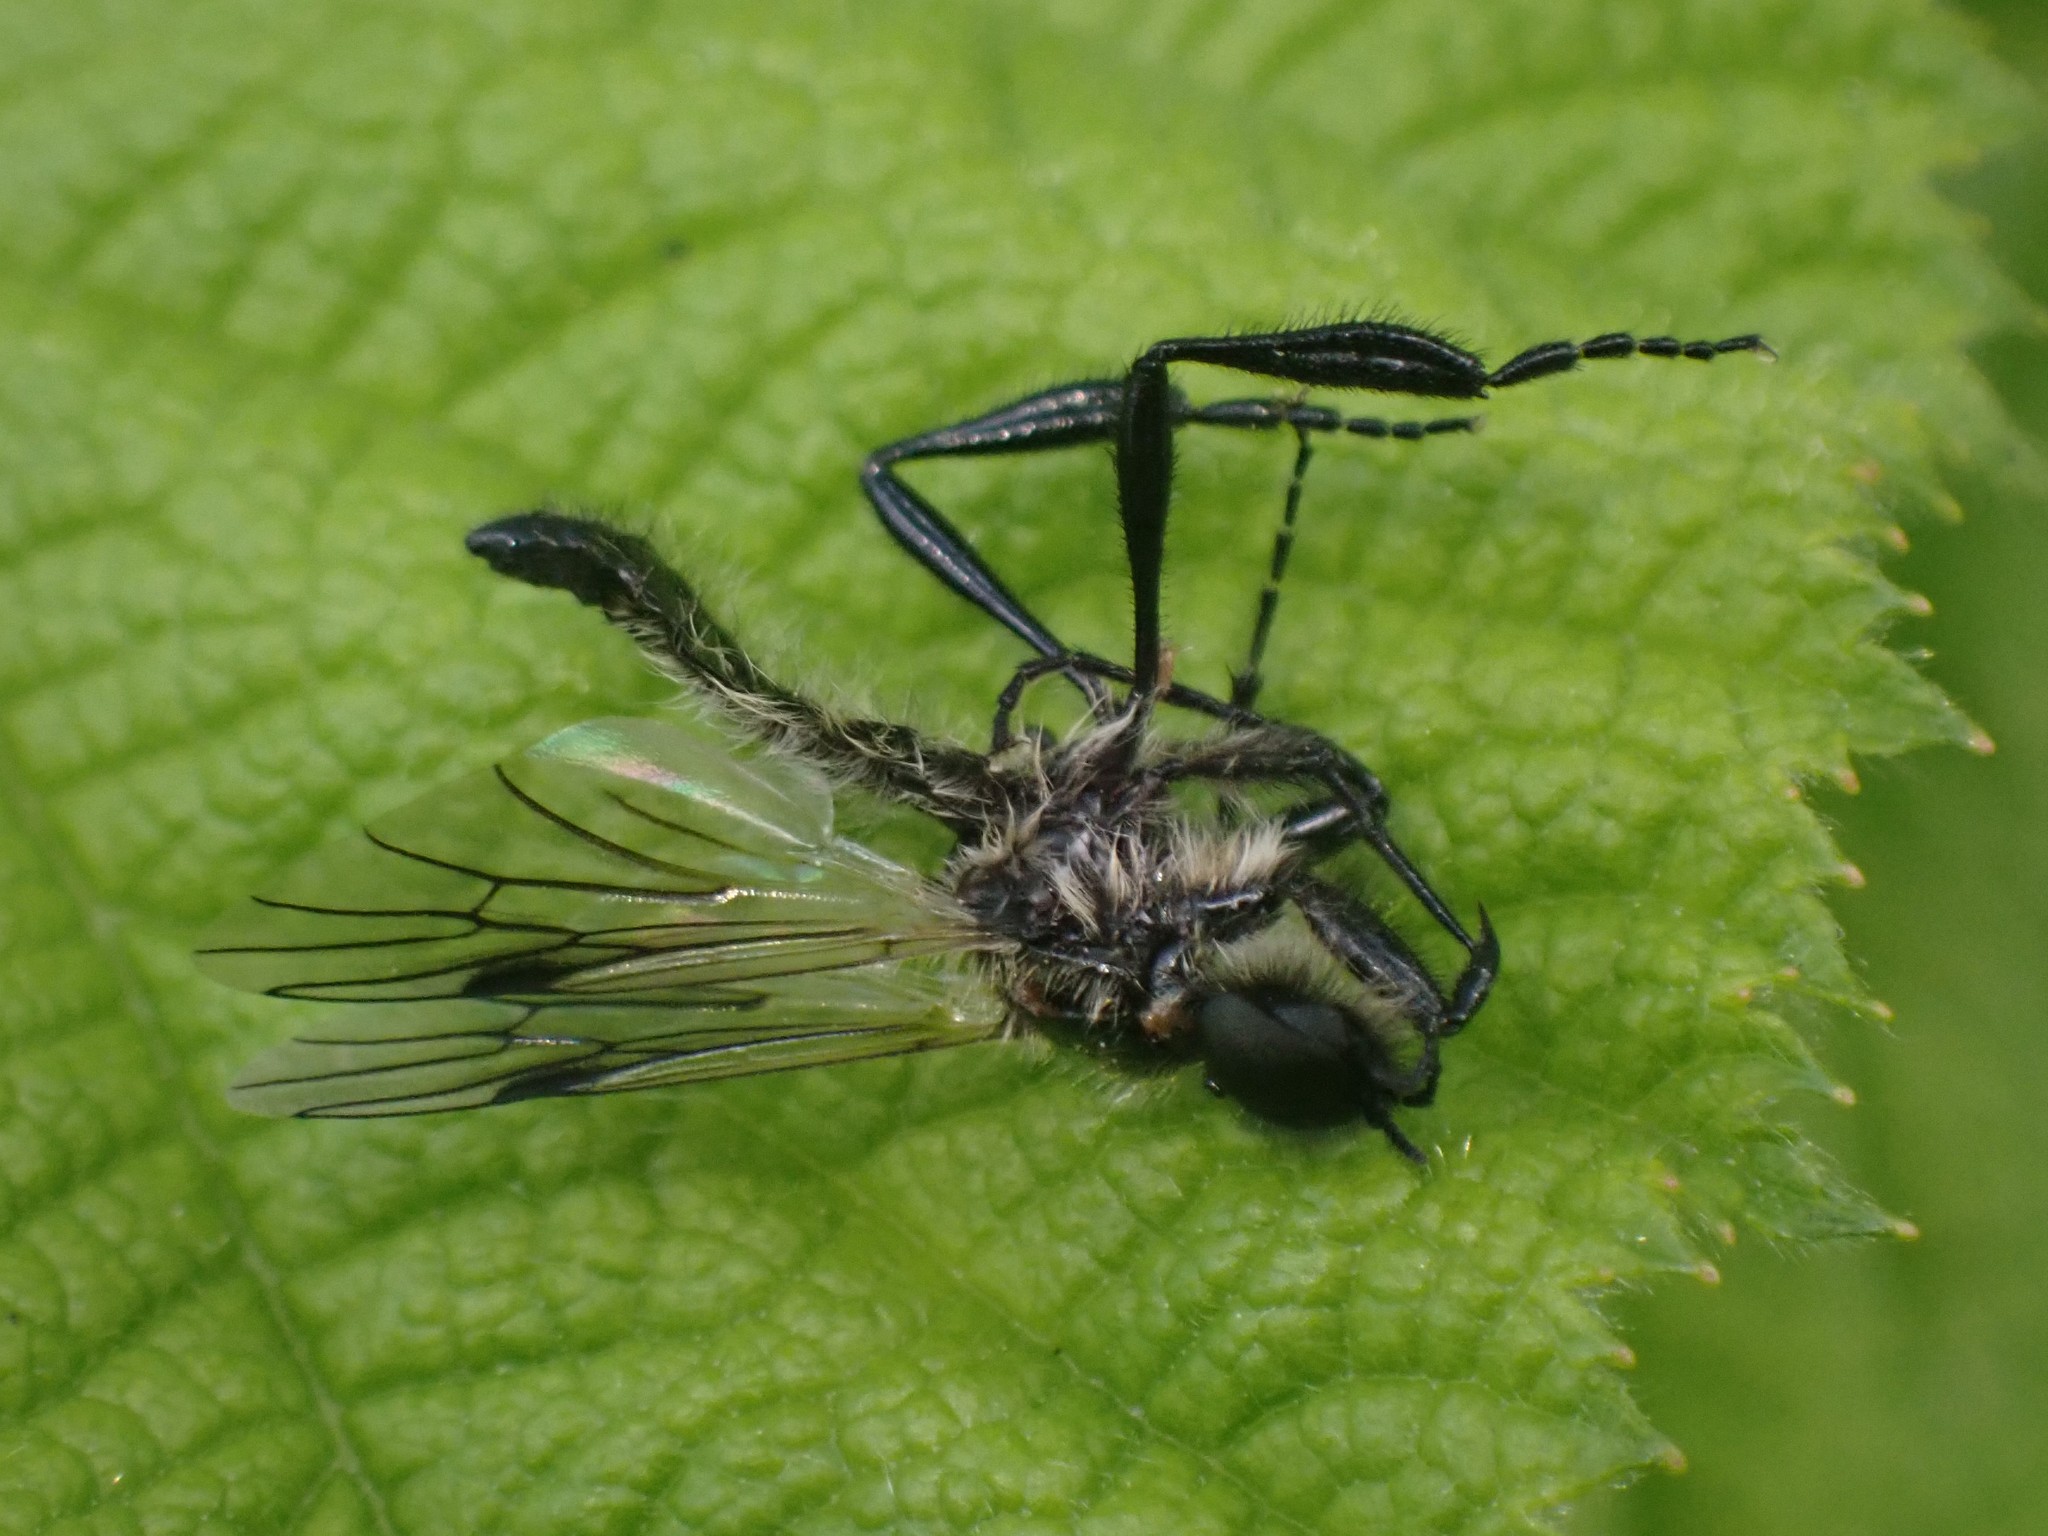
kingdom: Animalia
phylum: Arthropoda
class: Insecta
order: Diptera
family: Bibionidae
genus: Bibio
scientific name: Bibio albipennis
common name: White-winged march fly
